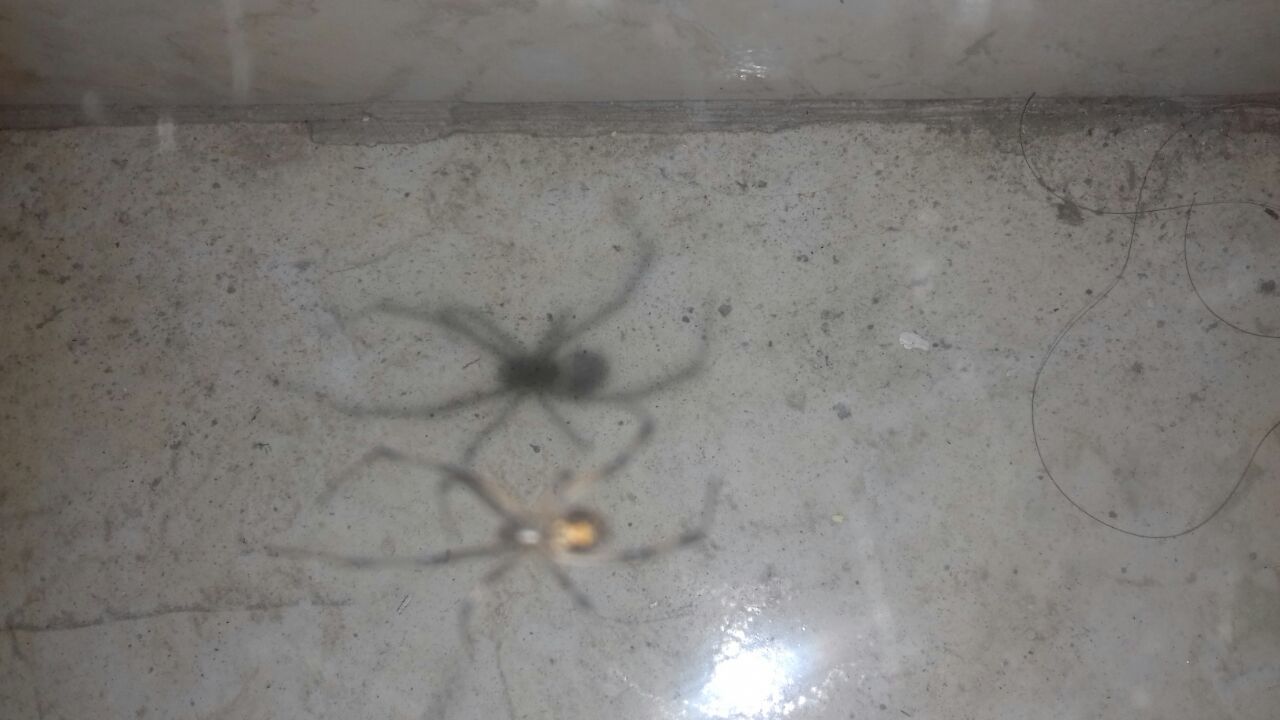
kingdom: Animalia
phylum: Arthropoda
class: Arachnida
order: Araneae
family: Theridiidae
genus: Latrodectus
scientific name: Latrodectus geometricus
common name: Brown widow spider
